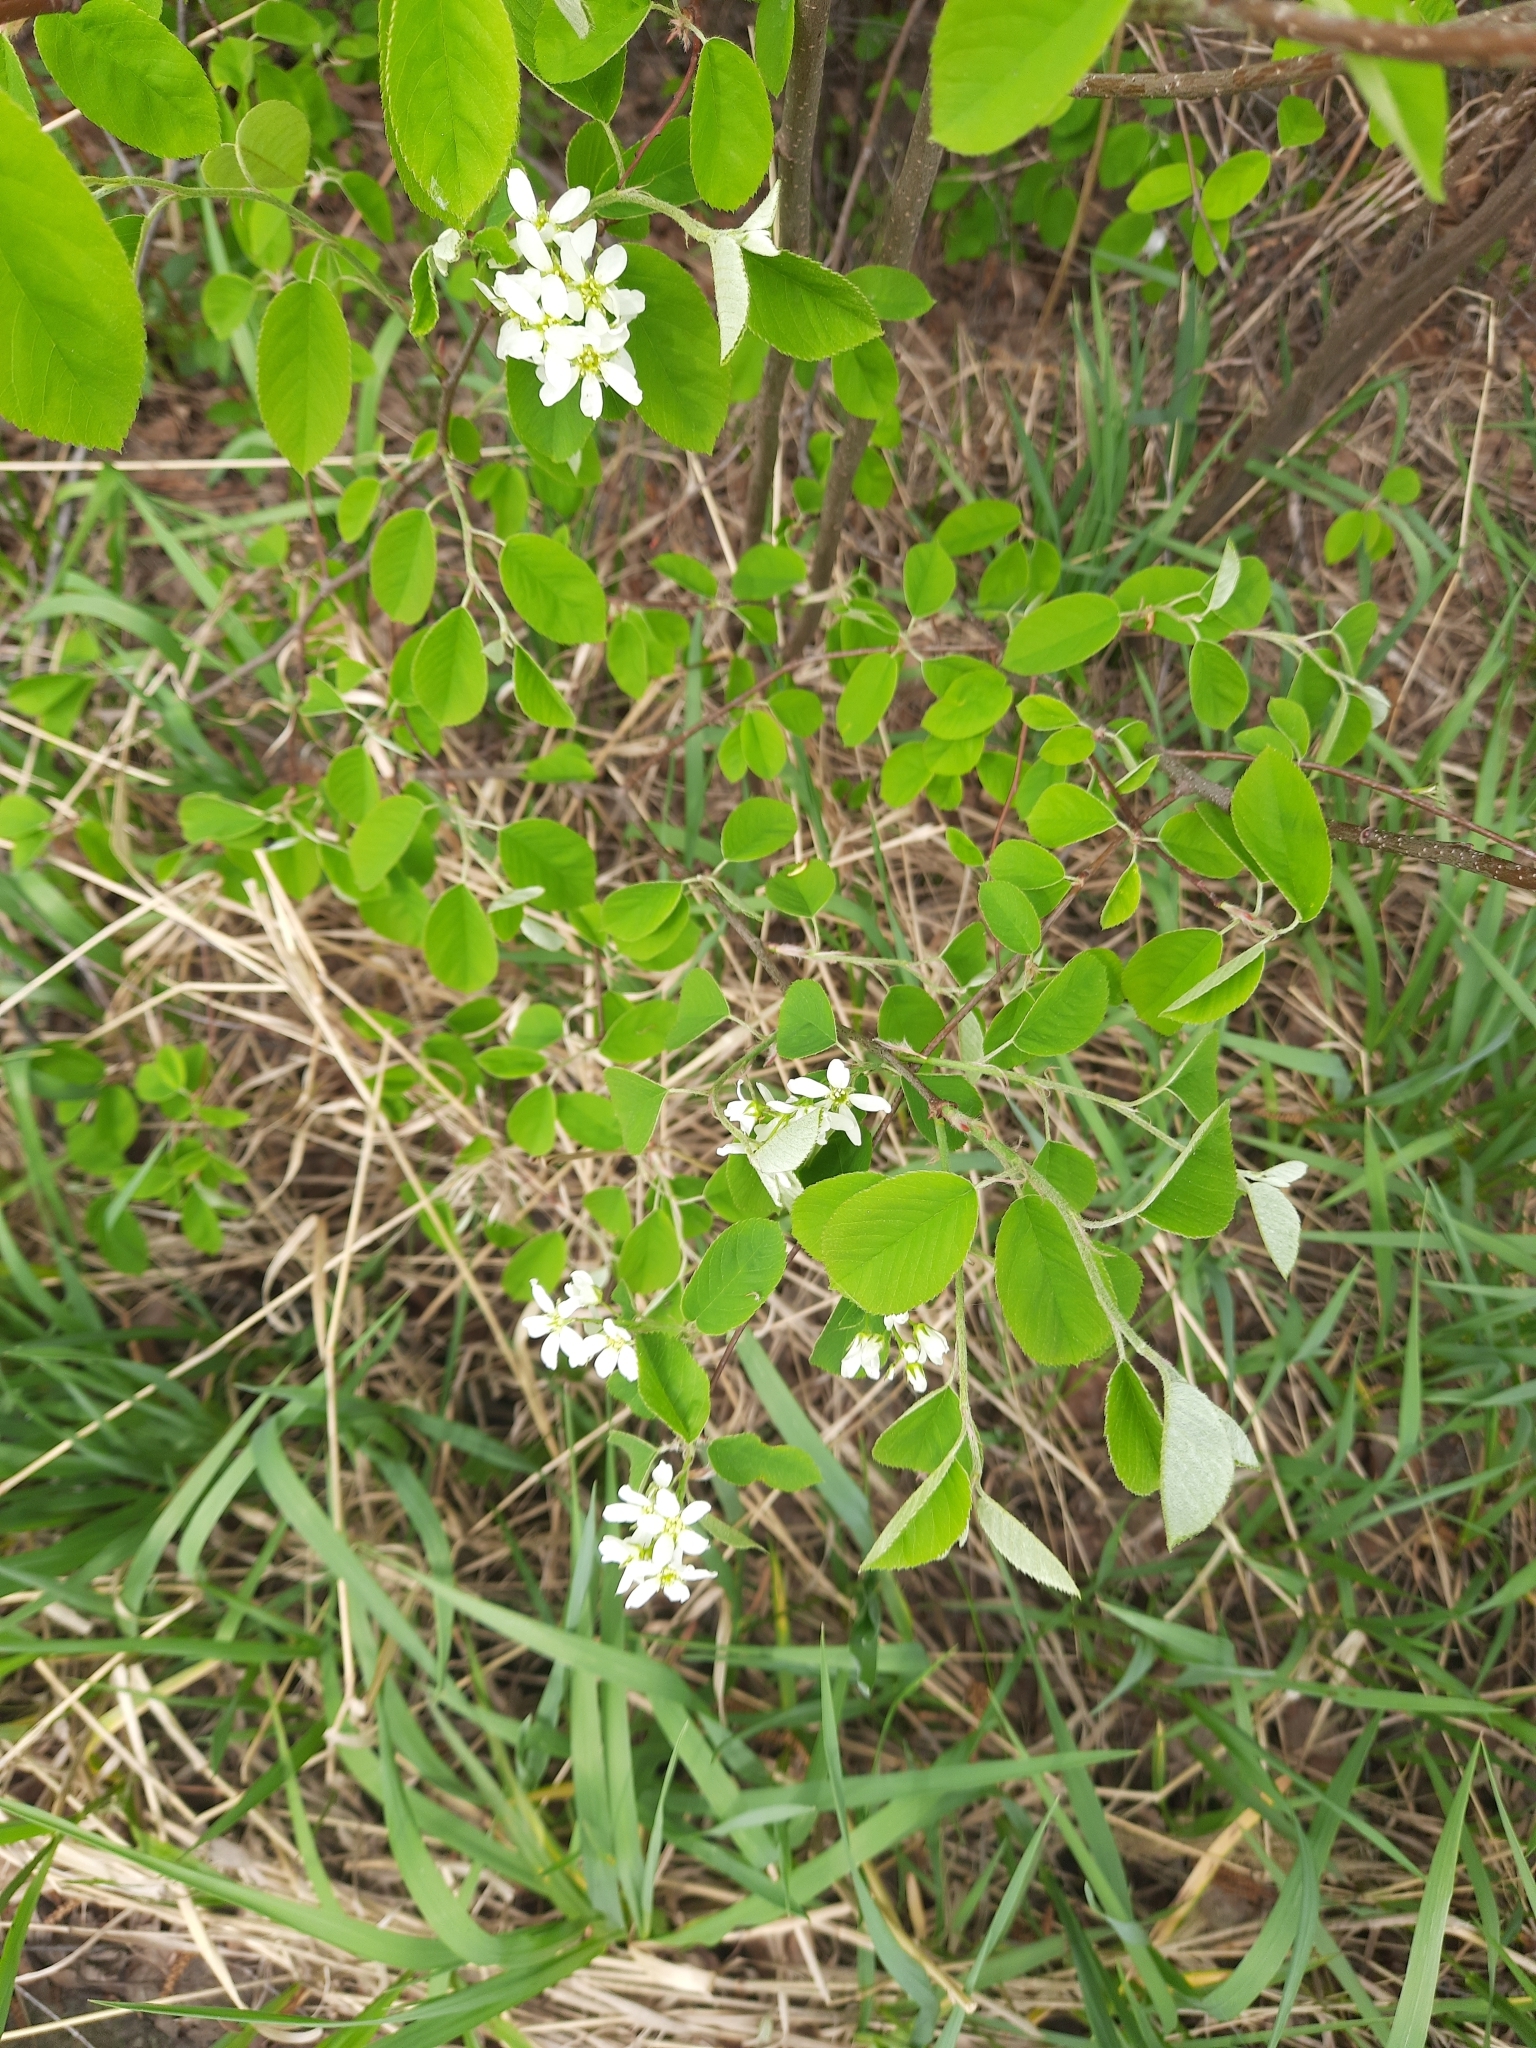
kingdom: Plantae
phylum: Tracheophyta
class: Magnoliopsida
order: Rosales
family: Rosaceae
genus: Amelanchier
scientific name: Amelanchier
